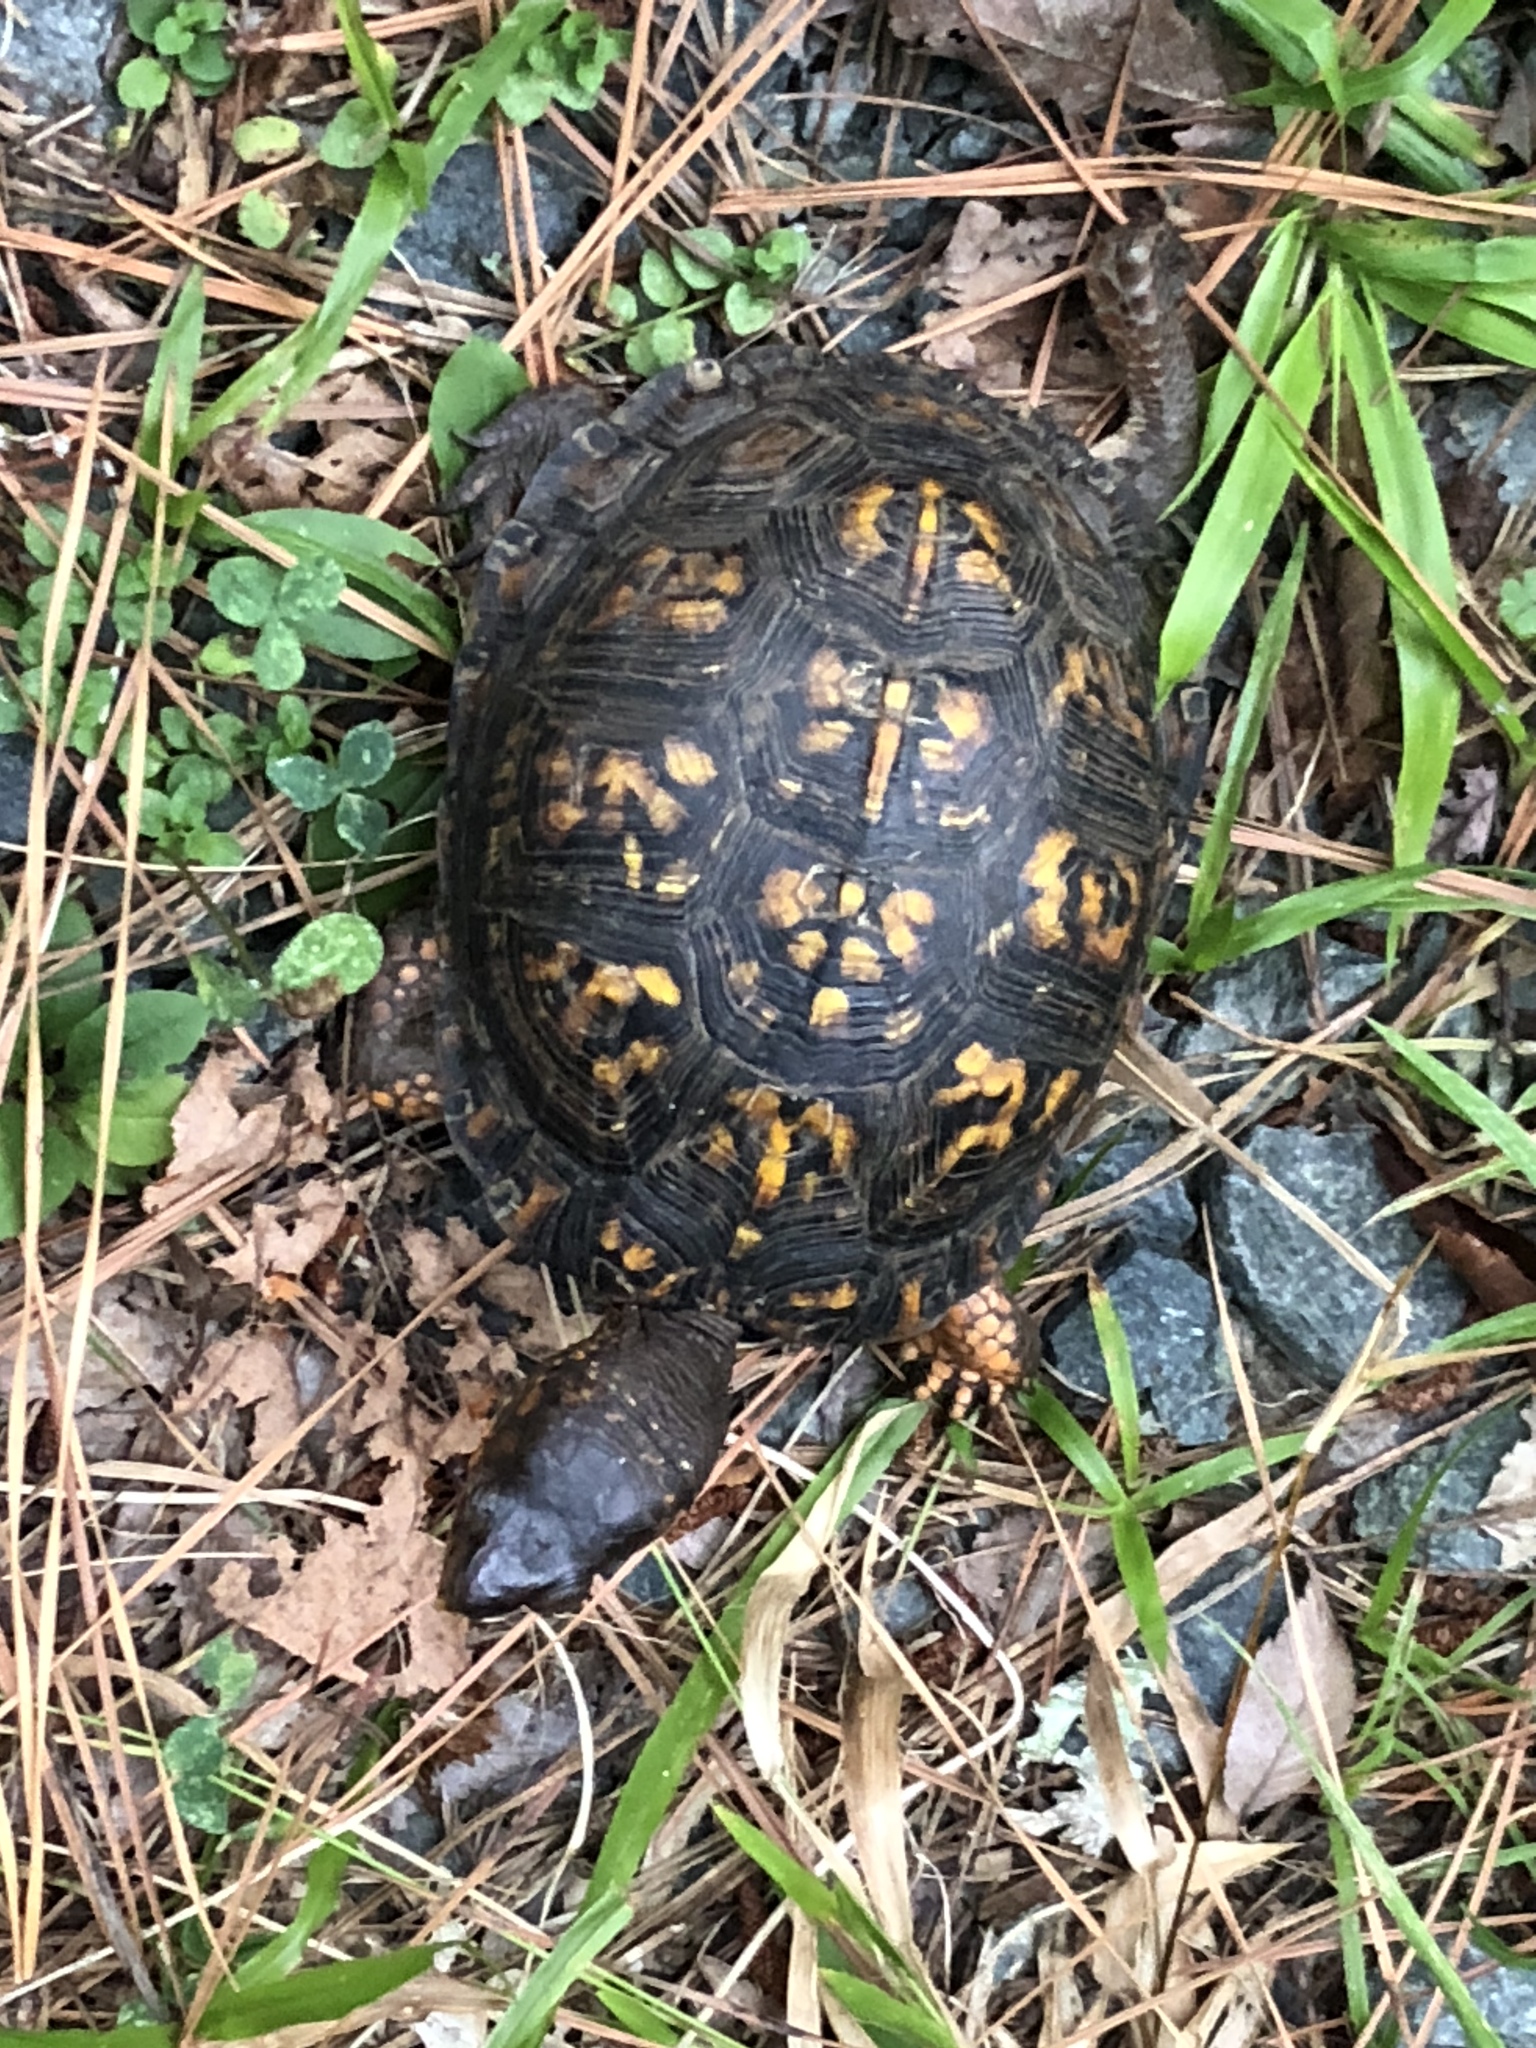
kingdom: Animalia
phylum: Chordata
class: Testudines
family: Emydidae
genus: Terrapene
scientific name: Terrapene carolina
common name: Common box turtle
